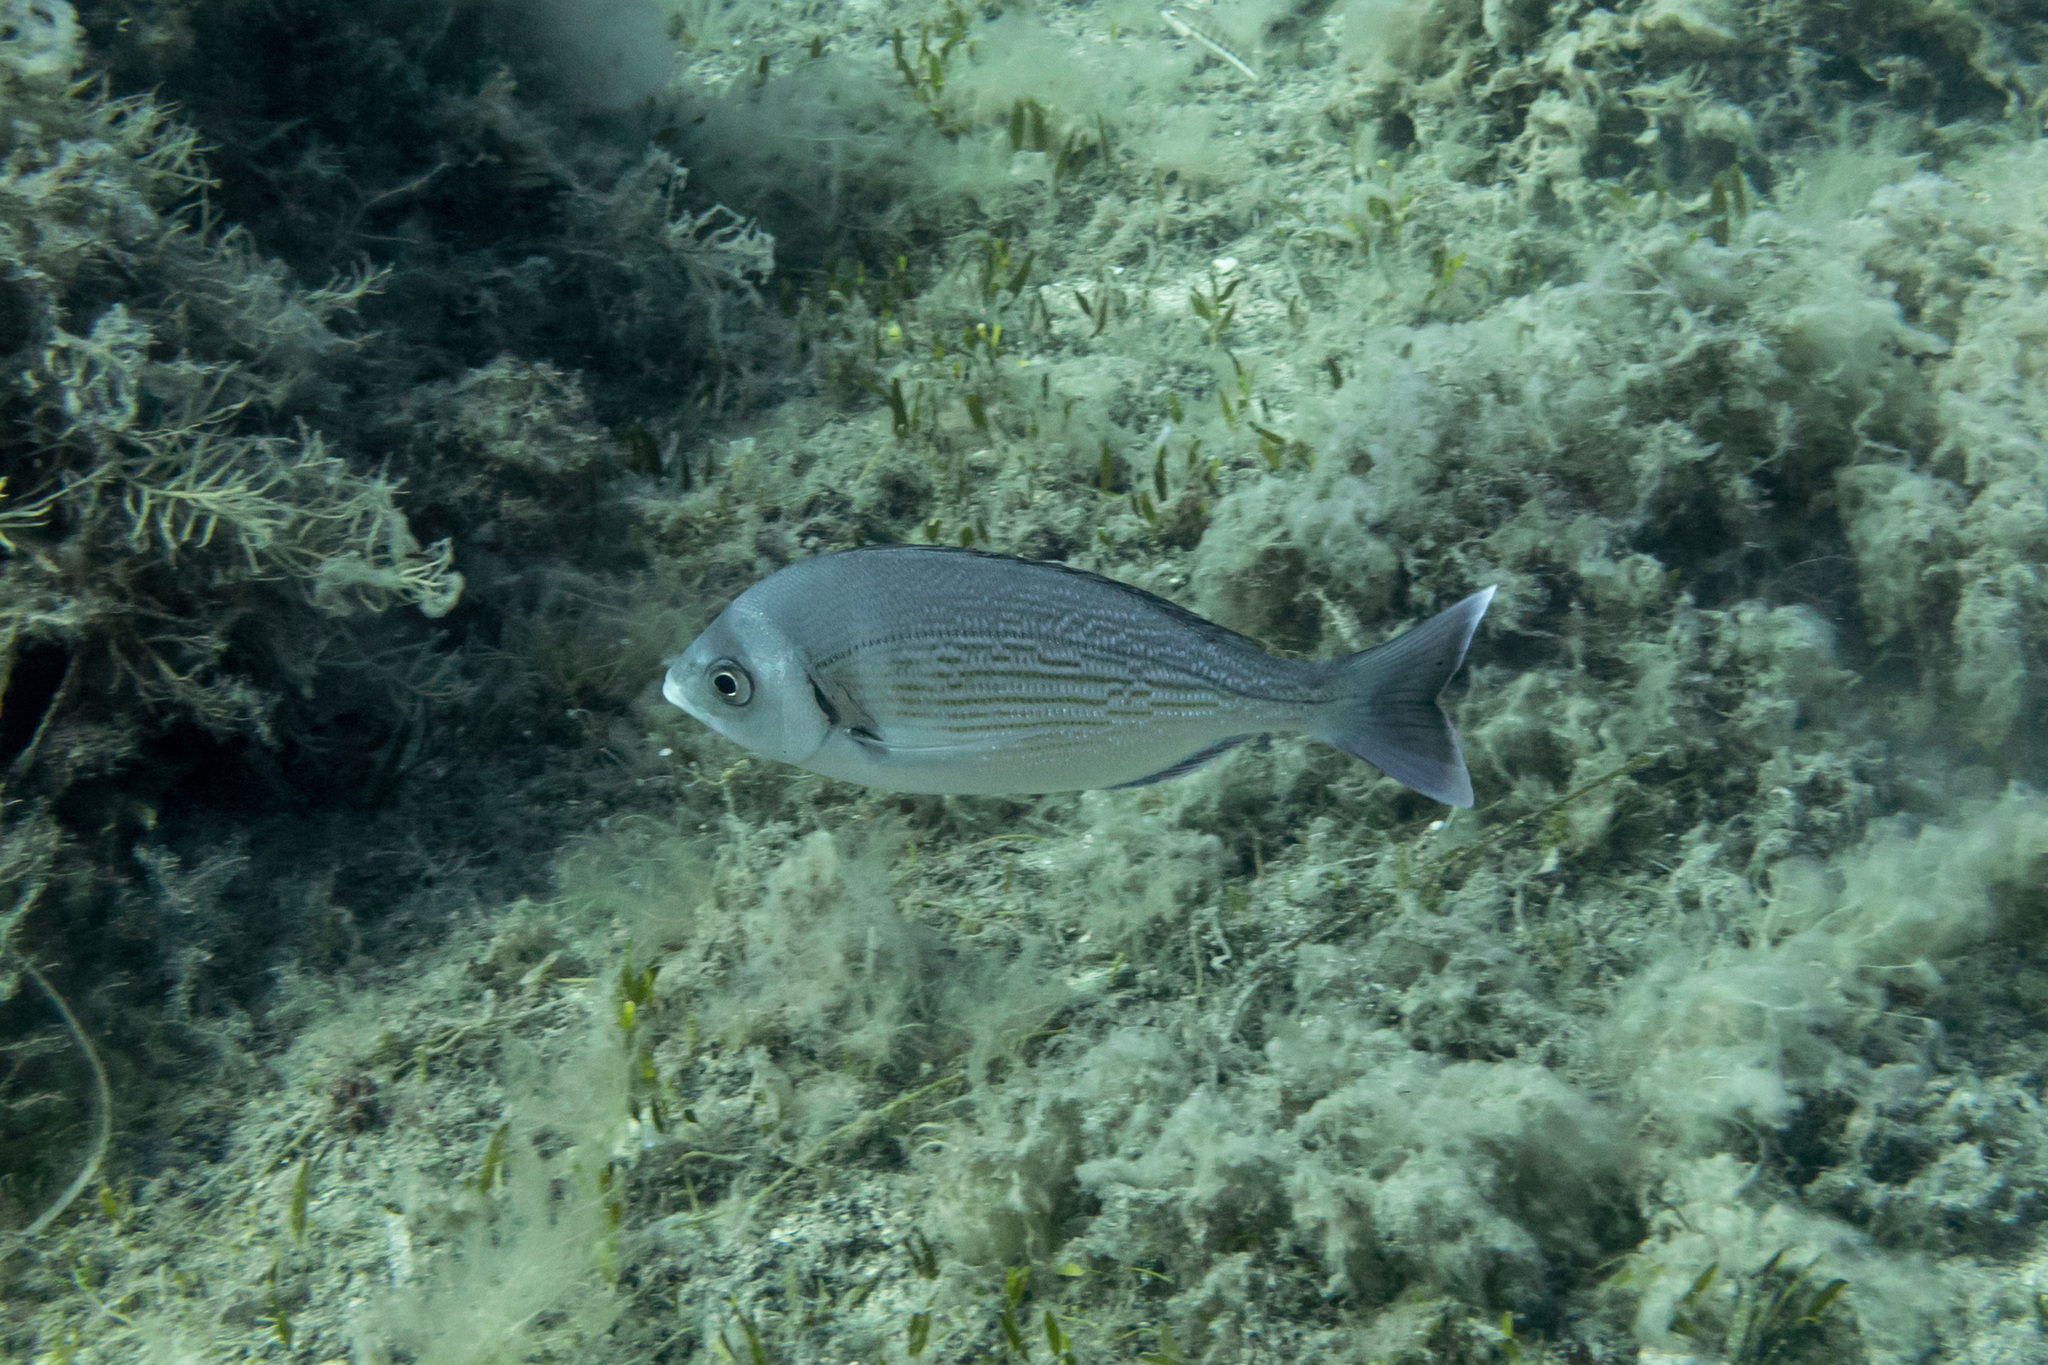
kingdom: Animalia
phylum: Chordata
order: Perciformes
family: Sparidae
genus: Spondyliosoma
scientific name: Spondyliosoma cantharus
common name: Black seabream
